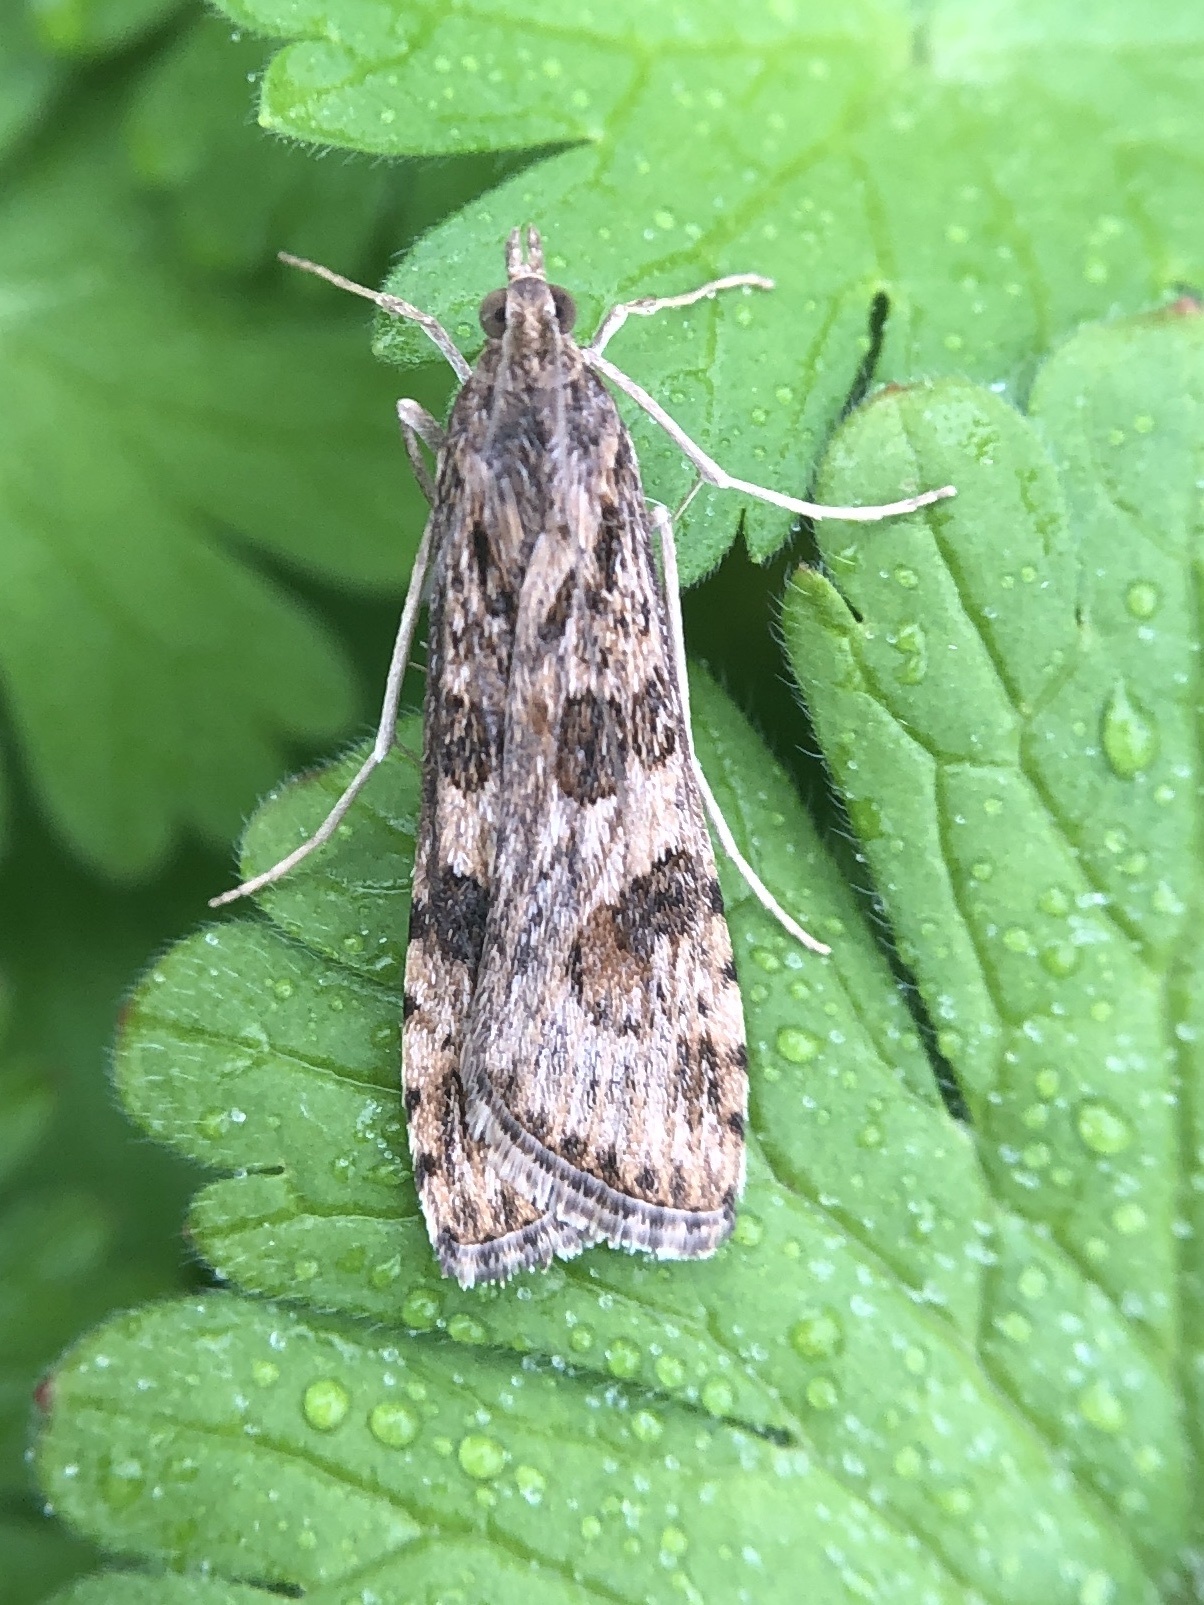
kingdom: Animalia
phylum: Arthropoda
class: Insecta
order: Lepidoptera
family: Crambidae
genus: Nomophila
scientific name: Nomophila noctuella
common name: Rush veneer
